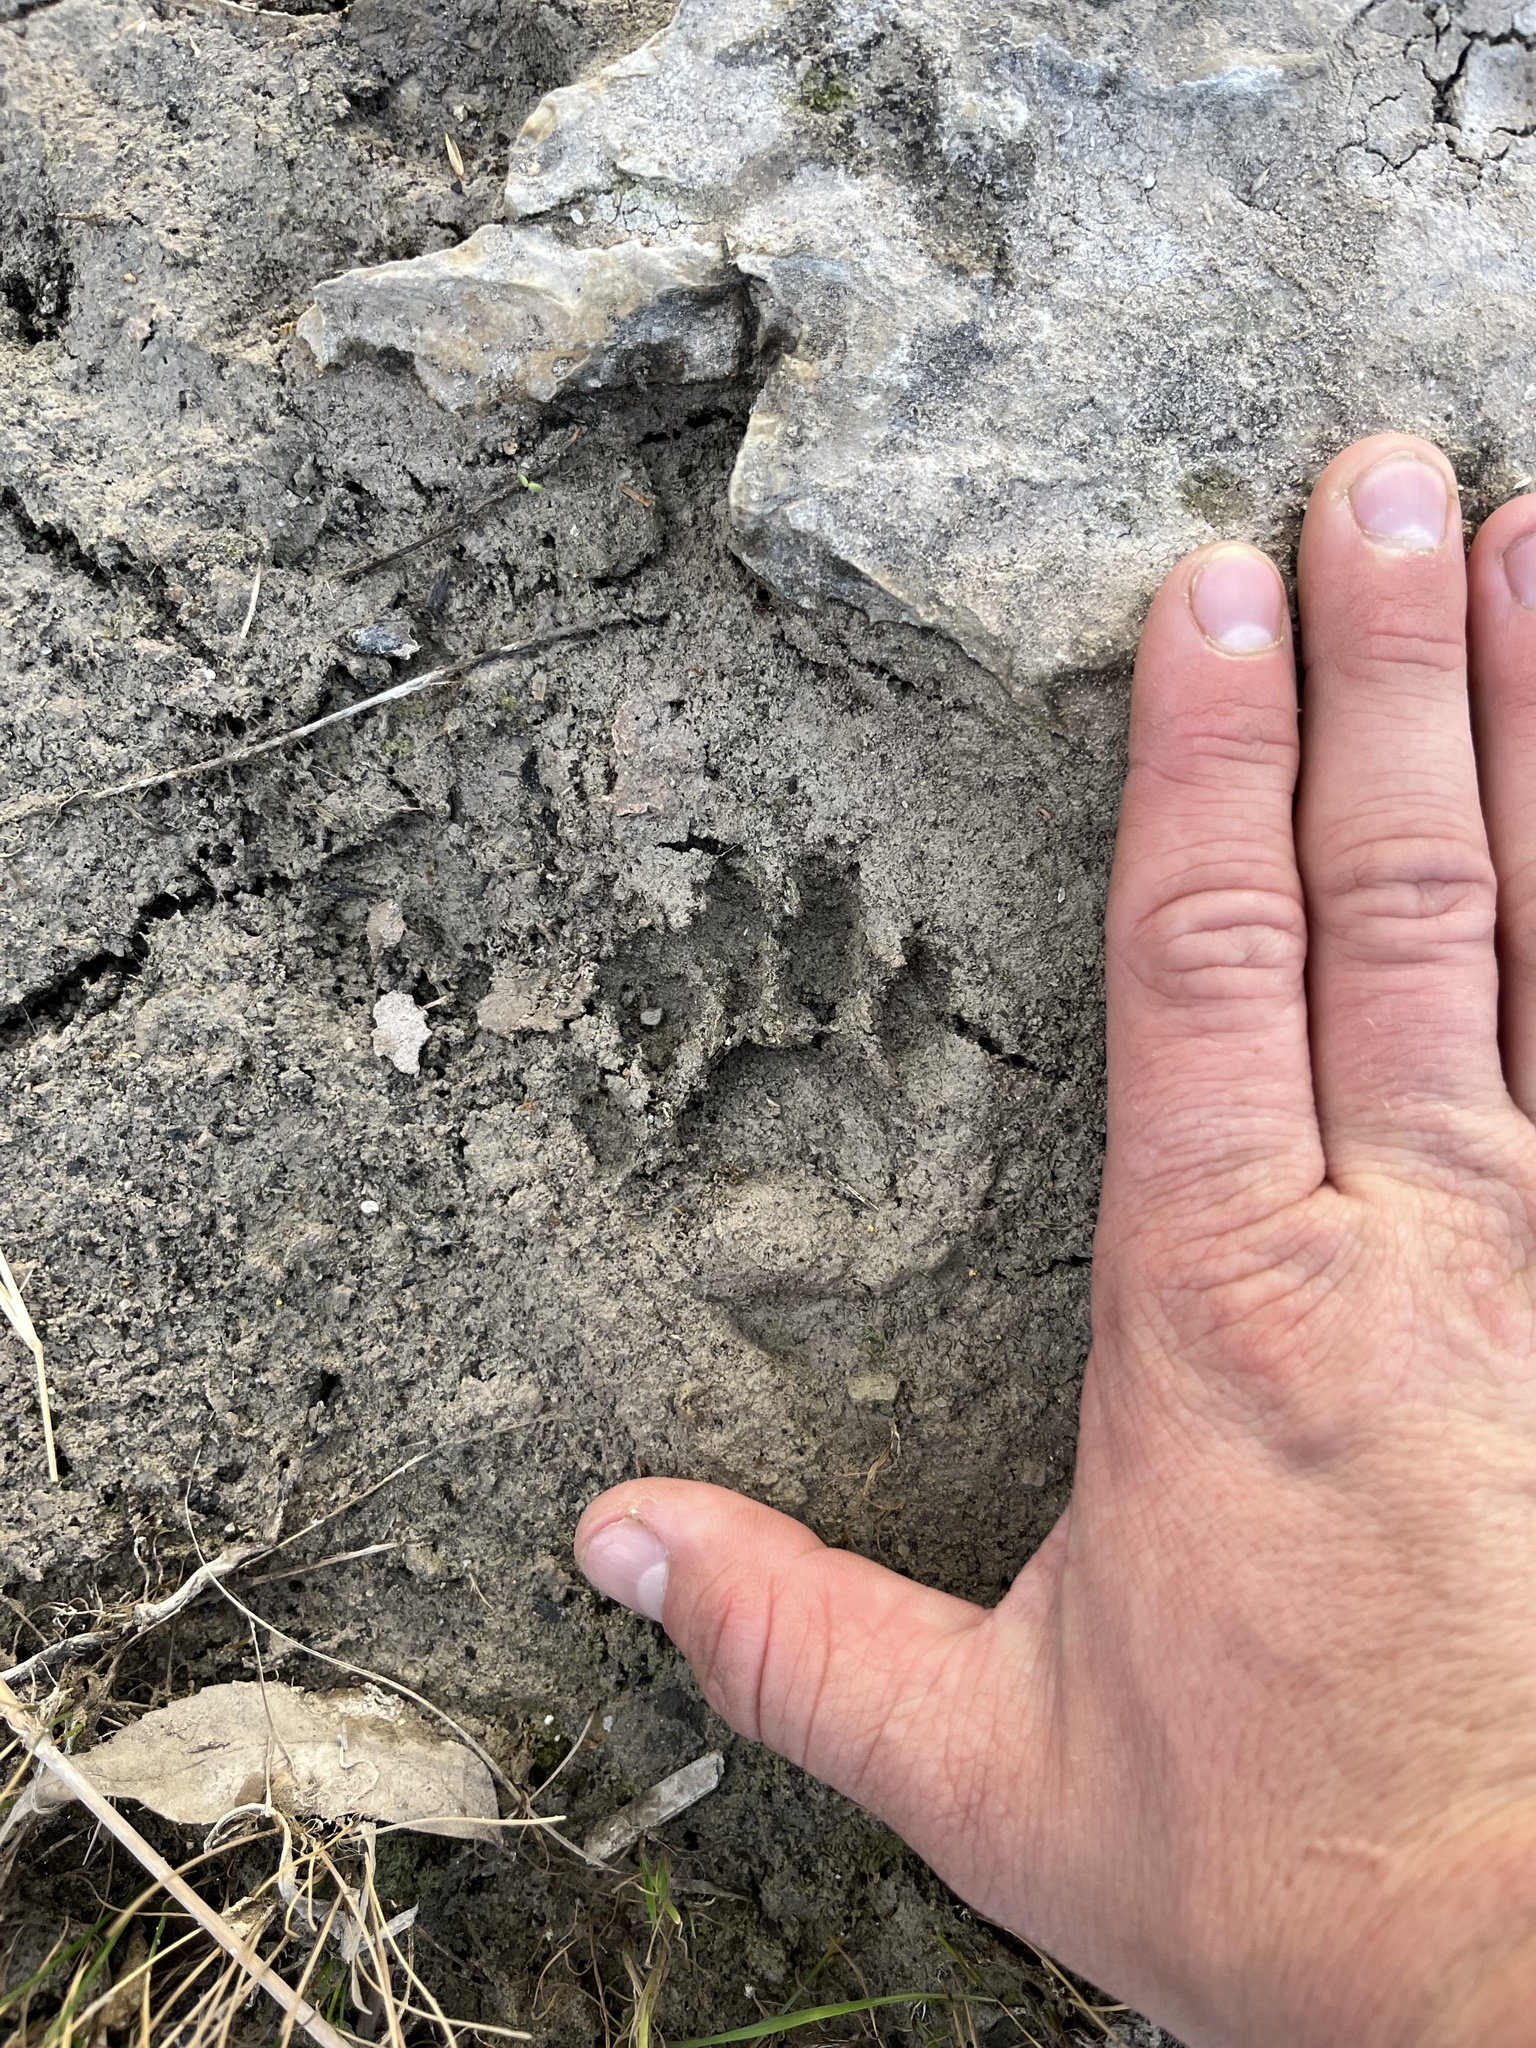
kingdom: Animalia
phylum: Chordata
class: Mammalia
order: Carnivora
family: Procyonidae
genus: Procyon
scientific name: Procyon lotor
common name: Raccoon
